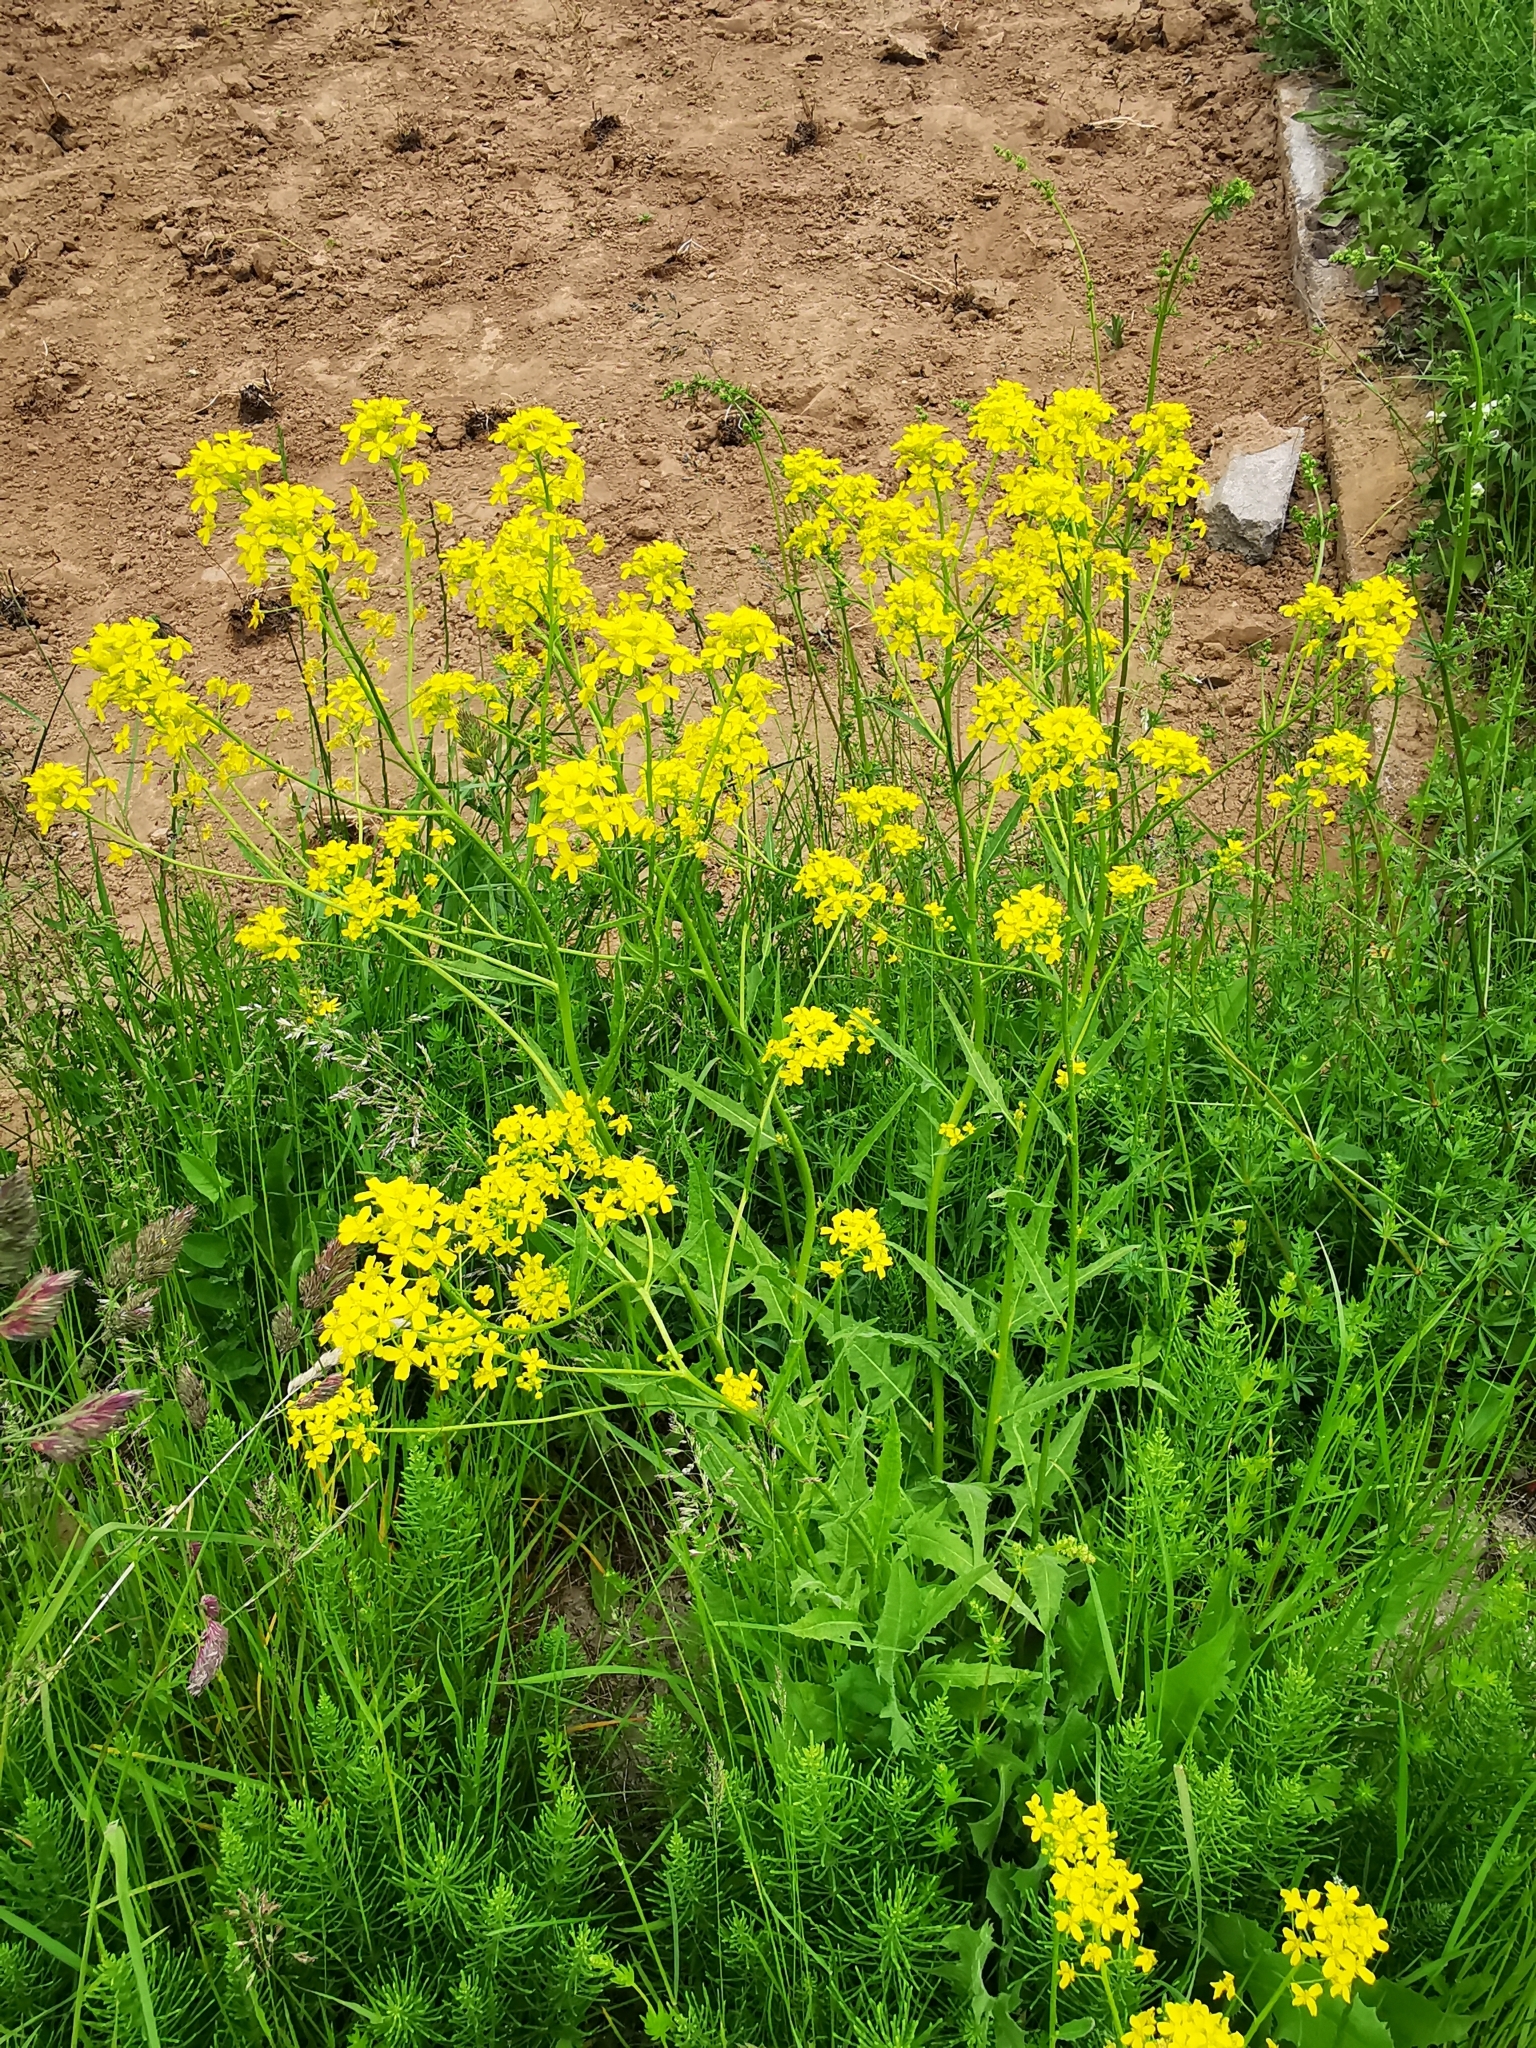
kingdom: Plantae
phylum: Tracheophyta
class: Magnoliopsida
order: Brassicales
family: Brassicaceae
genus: Bunias
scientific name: Bunias orientalis
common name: Warty-cabbage
